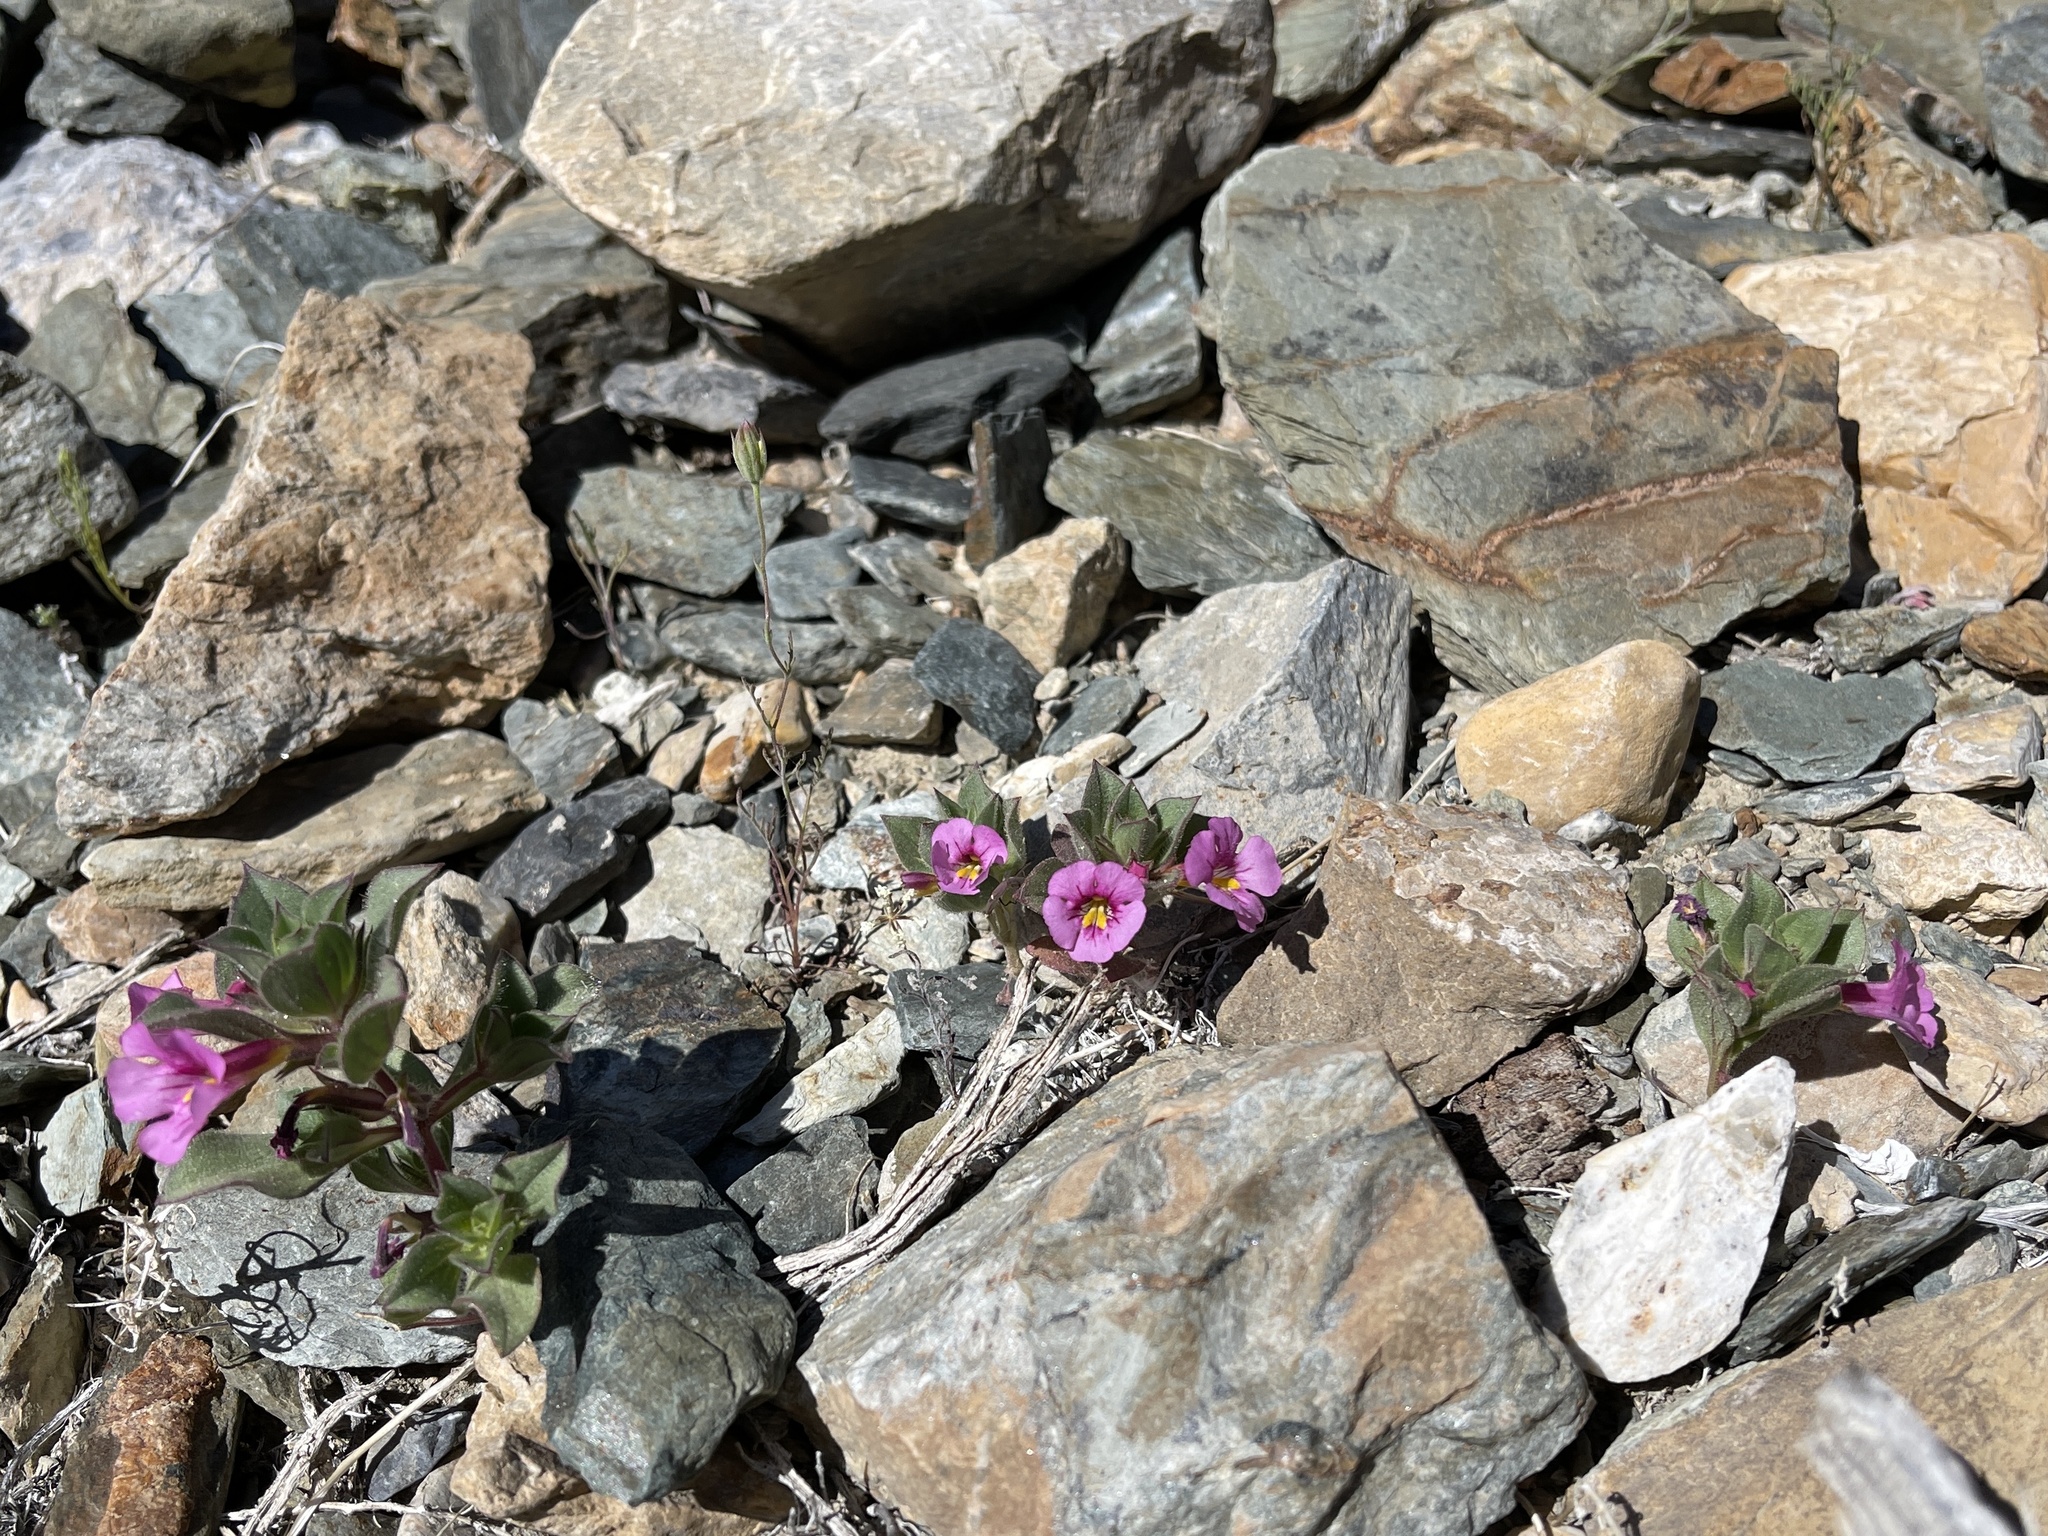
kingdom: Plantae
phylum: Tracheophyta
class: Magnoliopsida
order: Lamiales
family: Phrymaceae
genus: Diplacus
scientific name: Diplacus bigelovii
